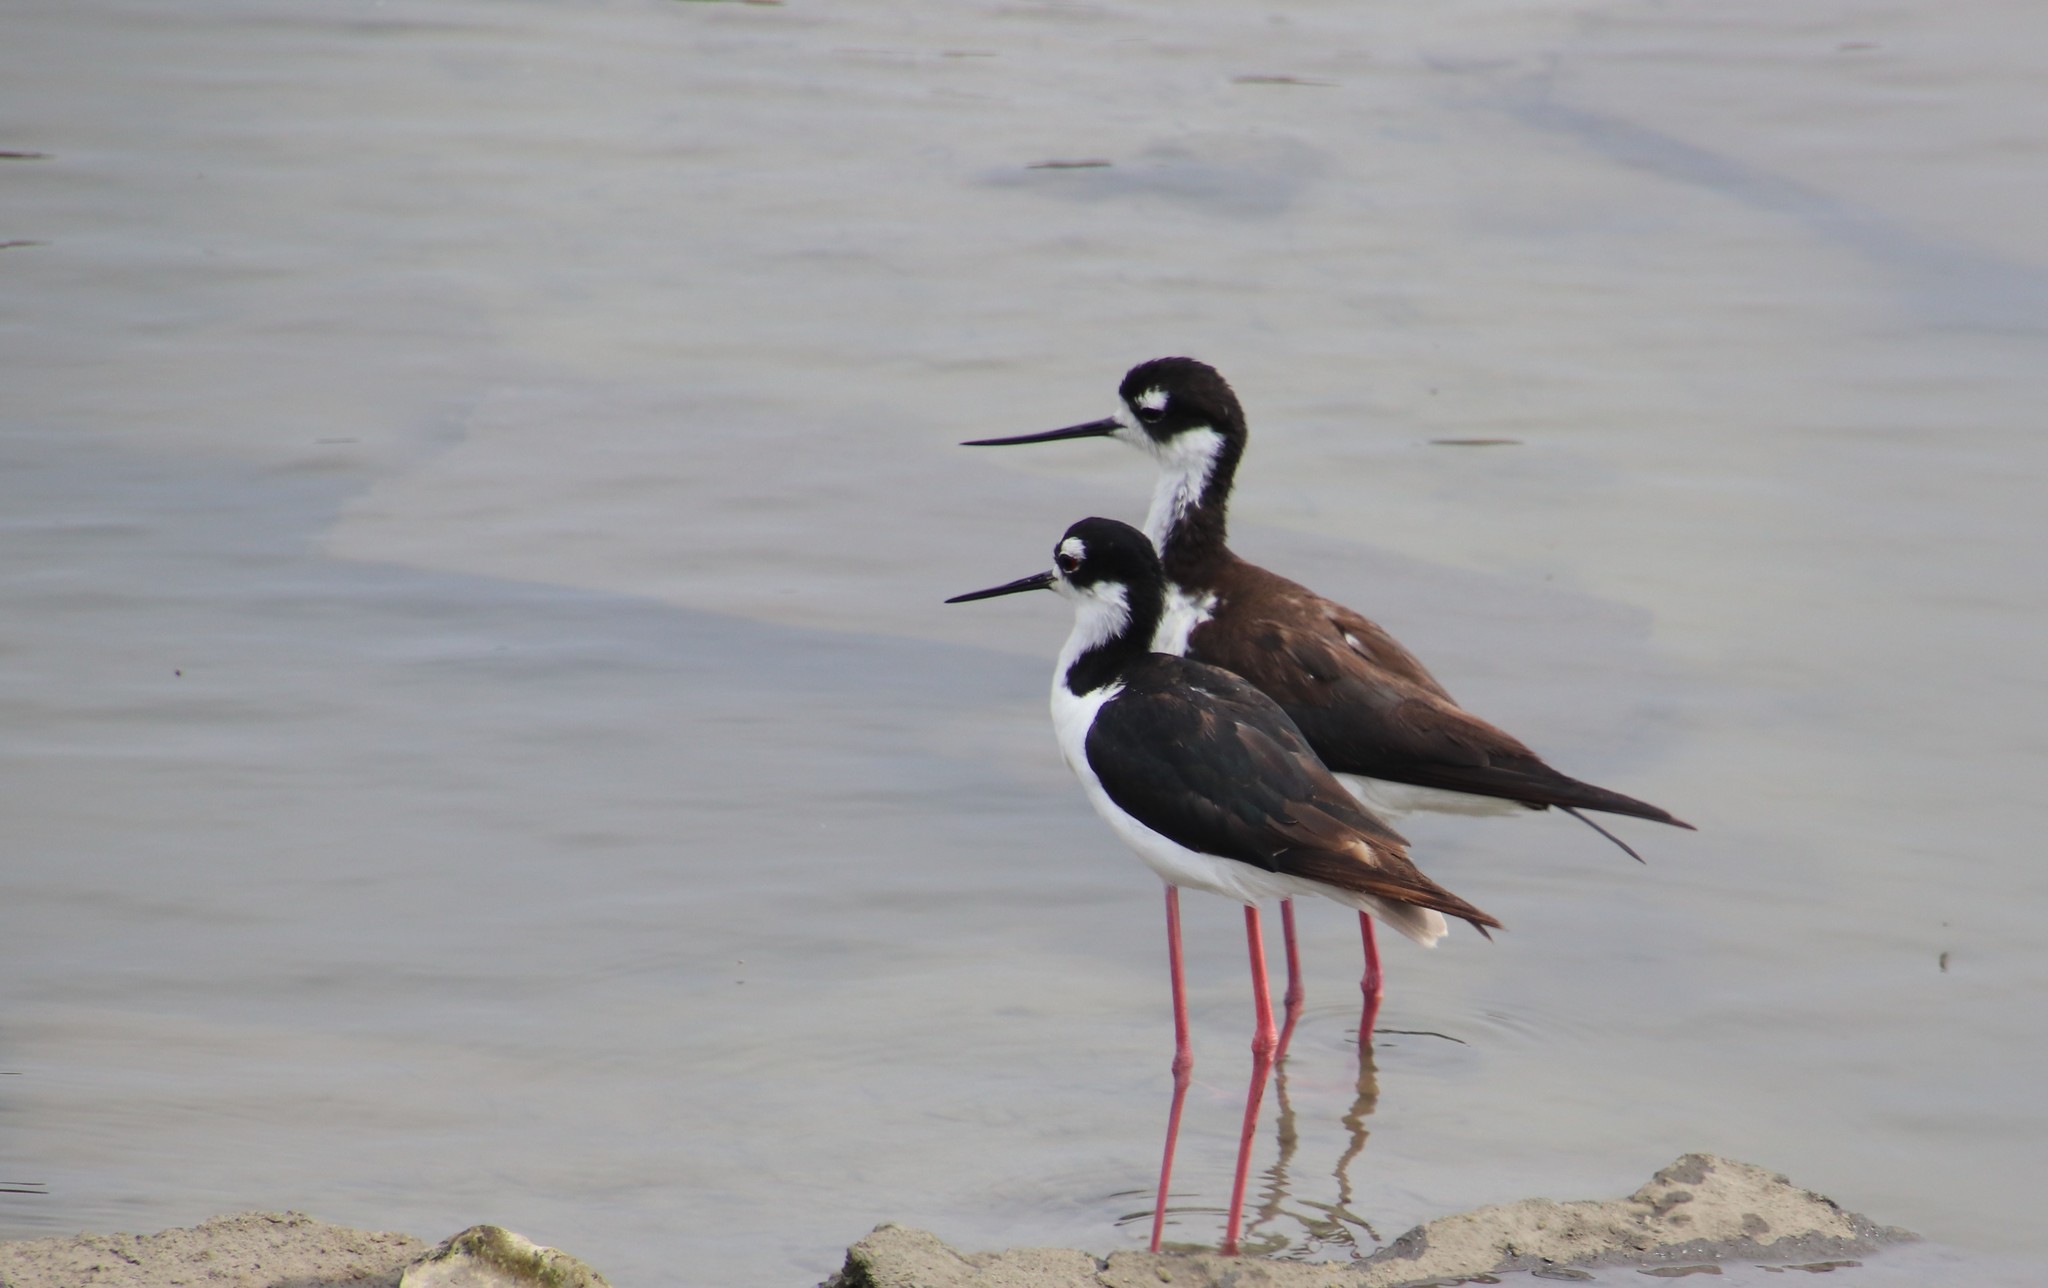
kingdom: Animalia
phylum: Chordata
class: Aves
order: Charadriiformes
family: Recurvirostridae
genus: Himantopus
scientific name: Himantopus mexicanus
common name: Black-necked stilt
